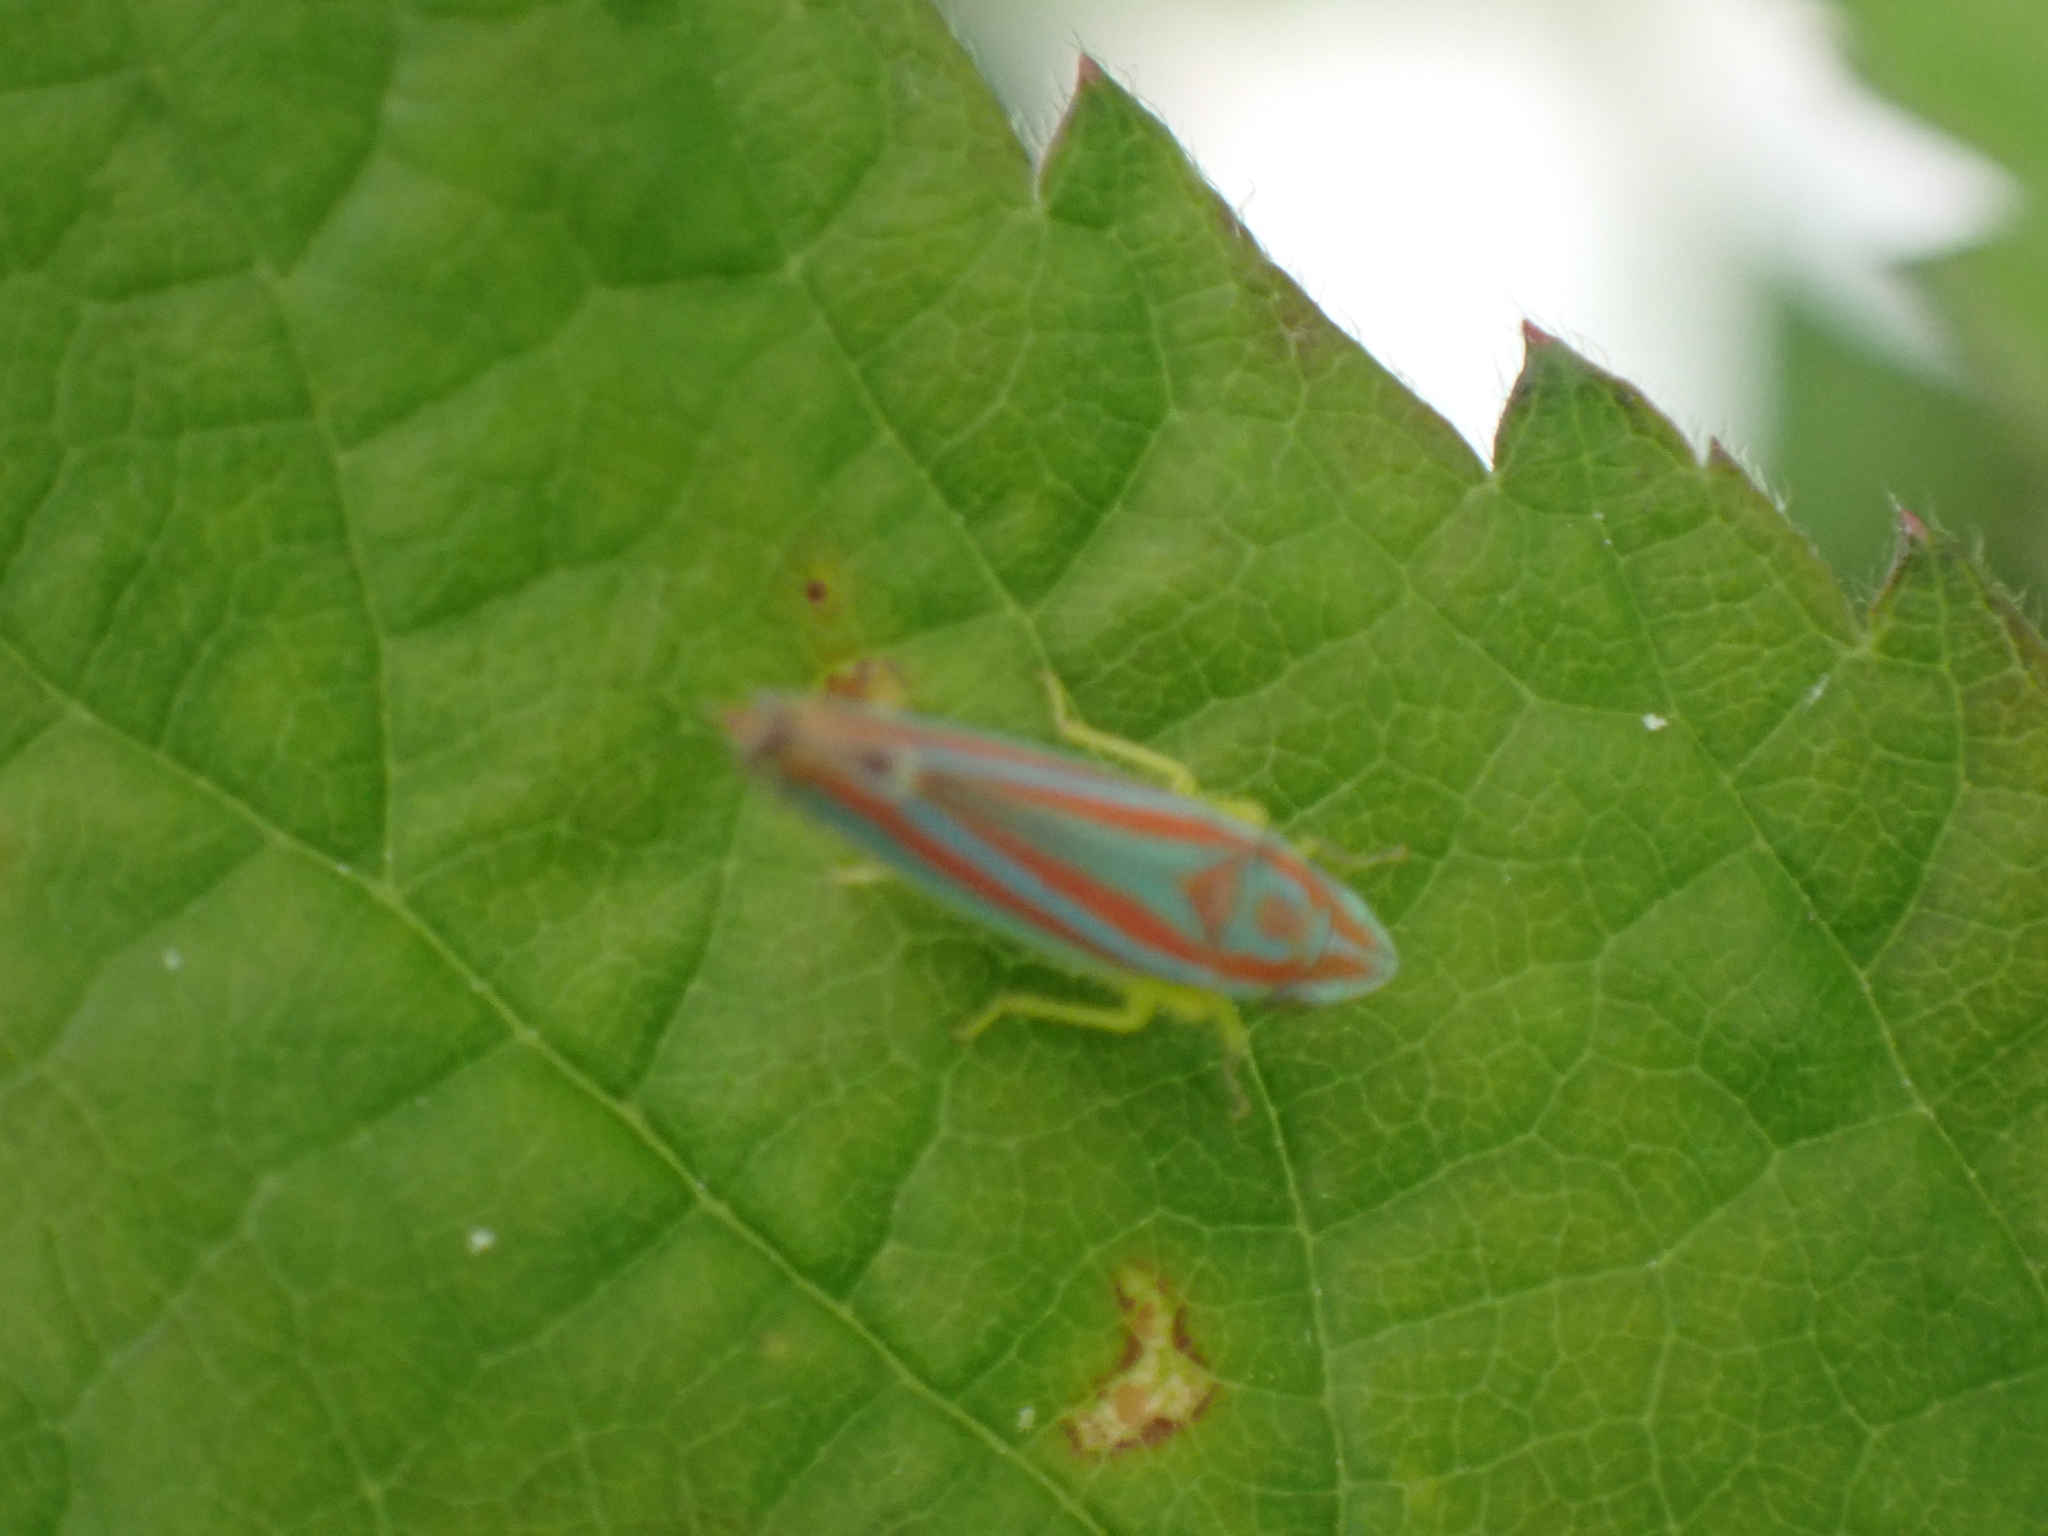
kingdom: Animalia
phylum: Arthropoda
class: Insecta
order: Hemiptera
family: Cicadellidae
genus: Graphocephala
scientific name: Graphocephala versuta
